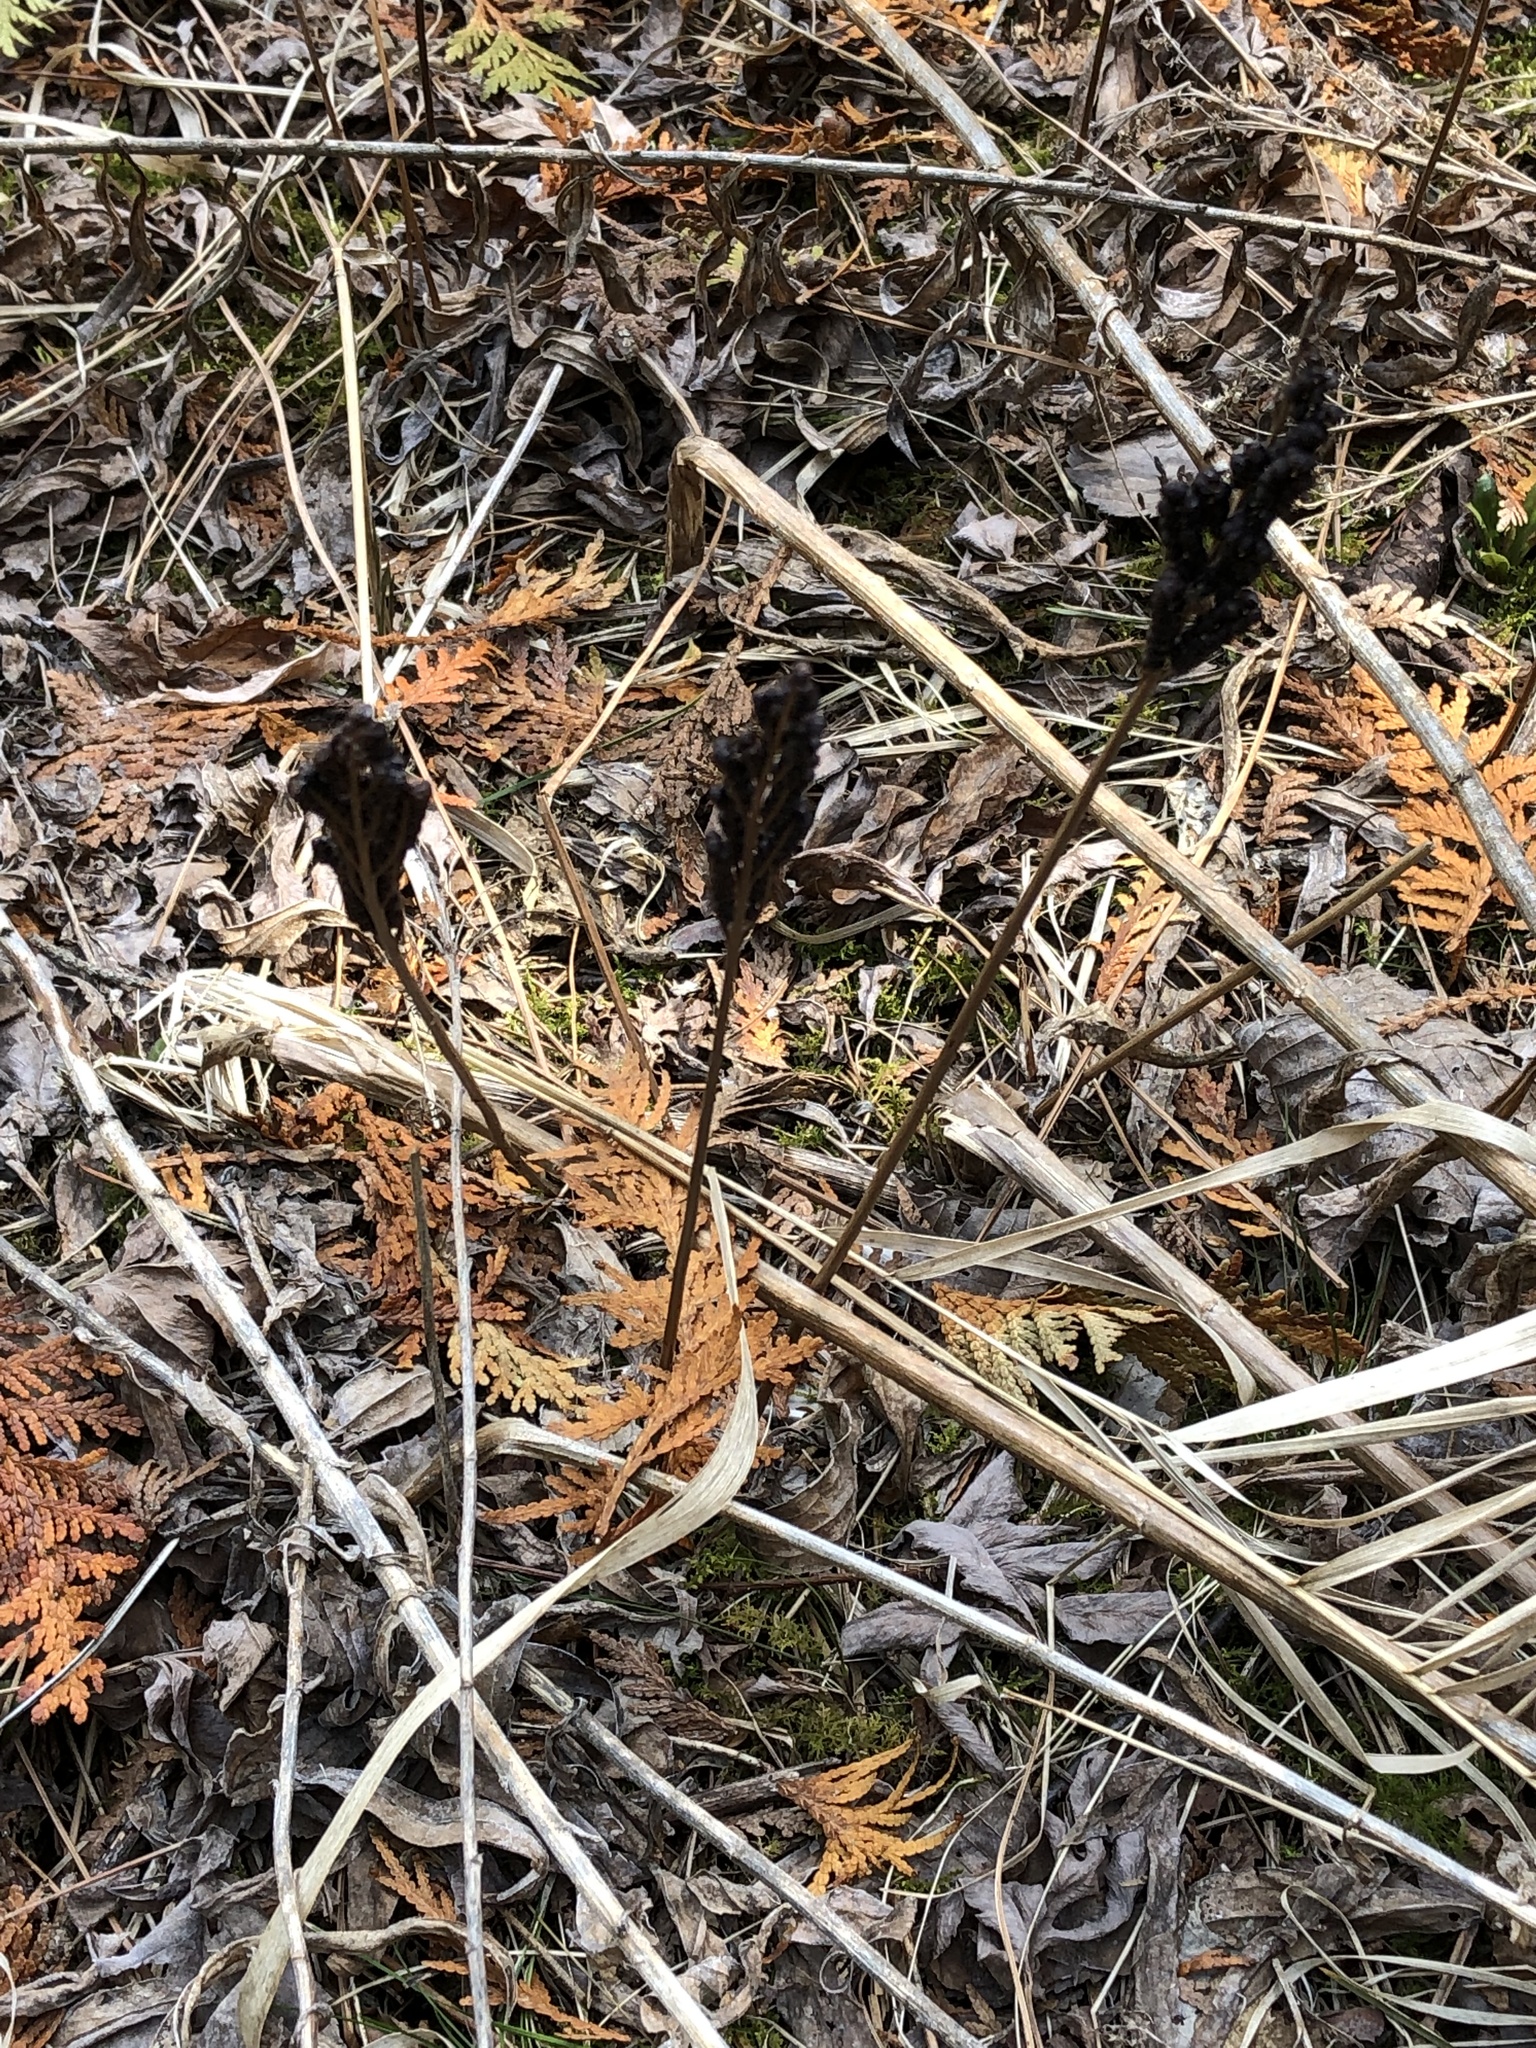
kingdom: Plantae
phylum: Tracheophyta
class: Polypodiopsida
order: Polypodiales
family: Onocleaceae
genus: Onoclea
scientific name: Onoclea sensibilis
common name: Sensitive fern
